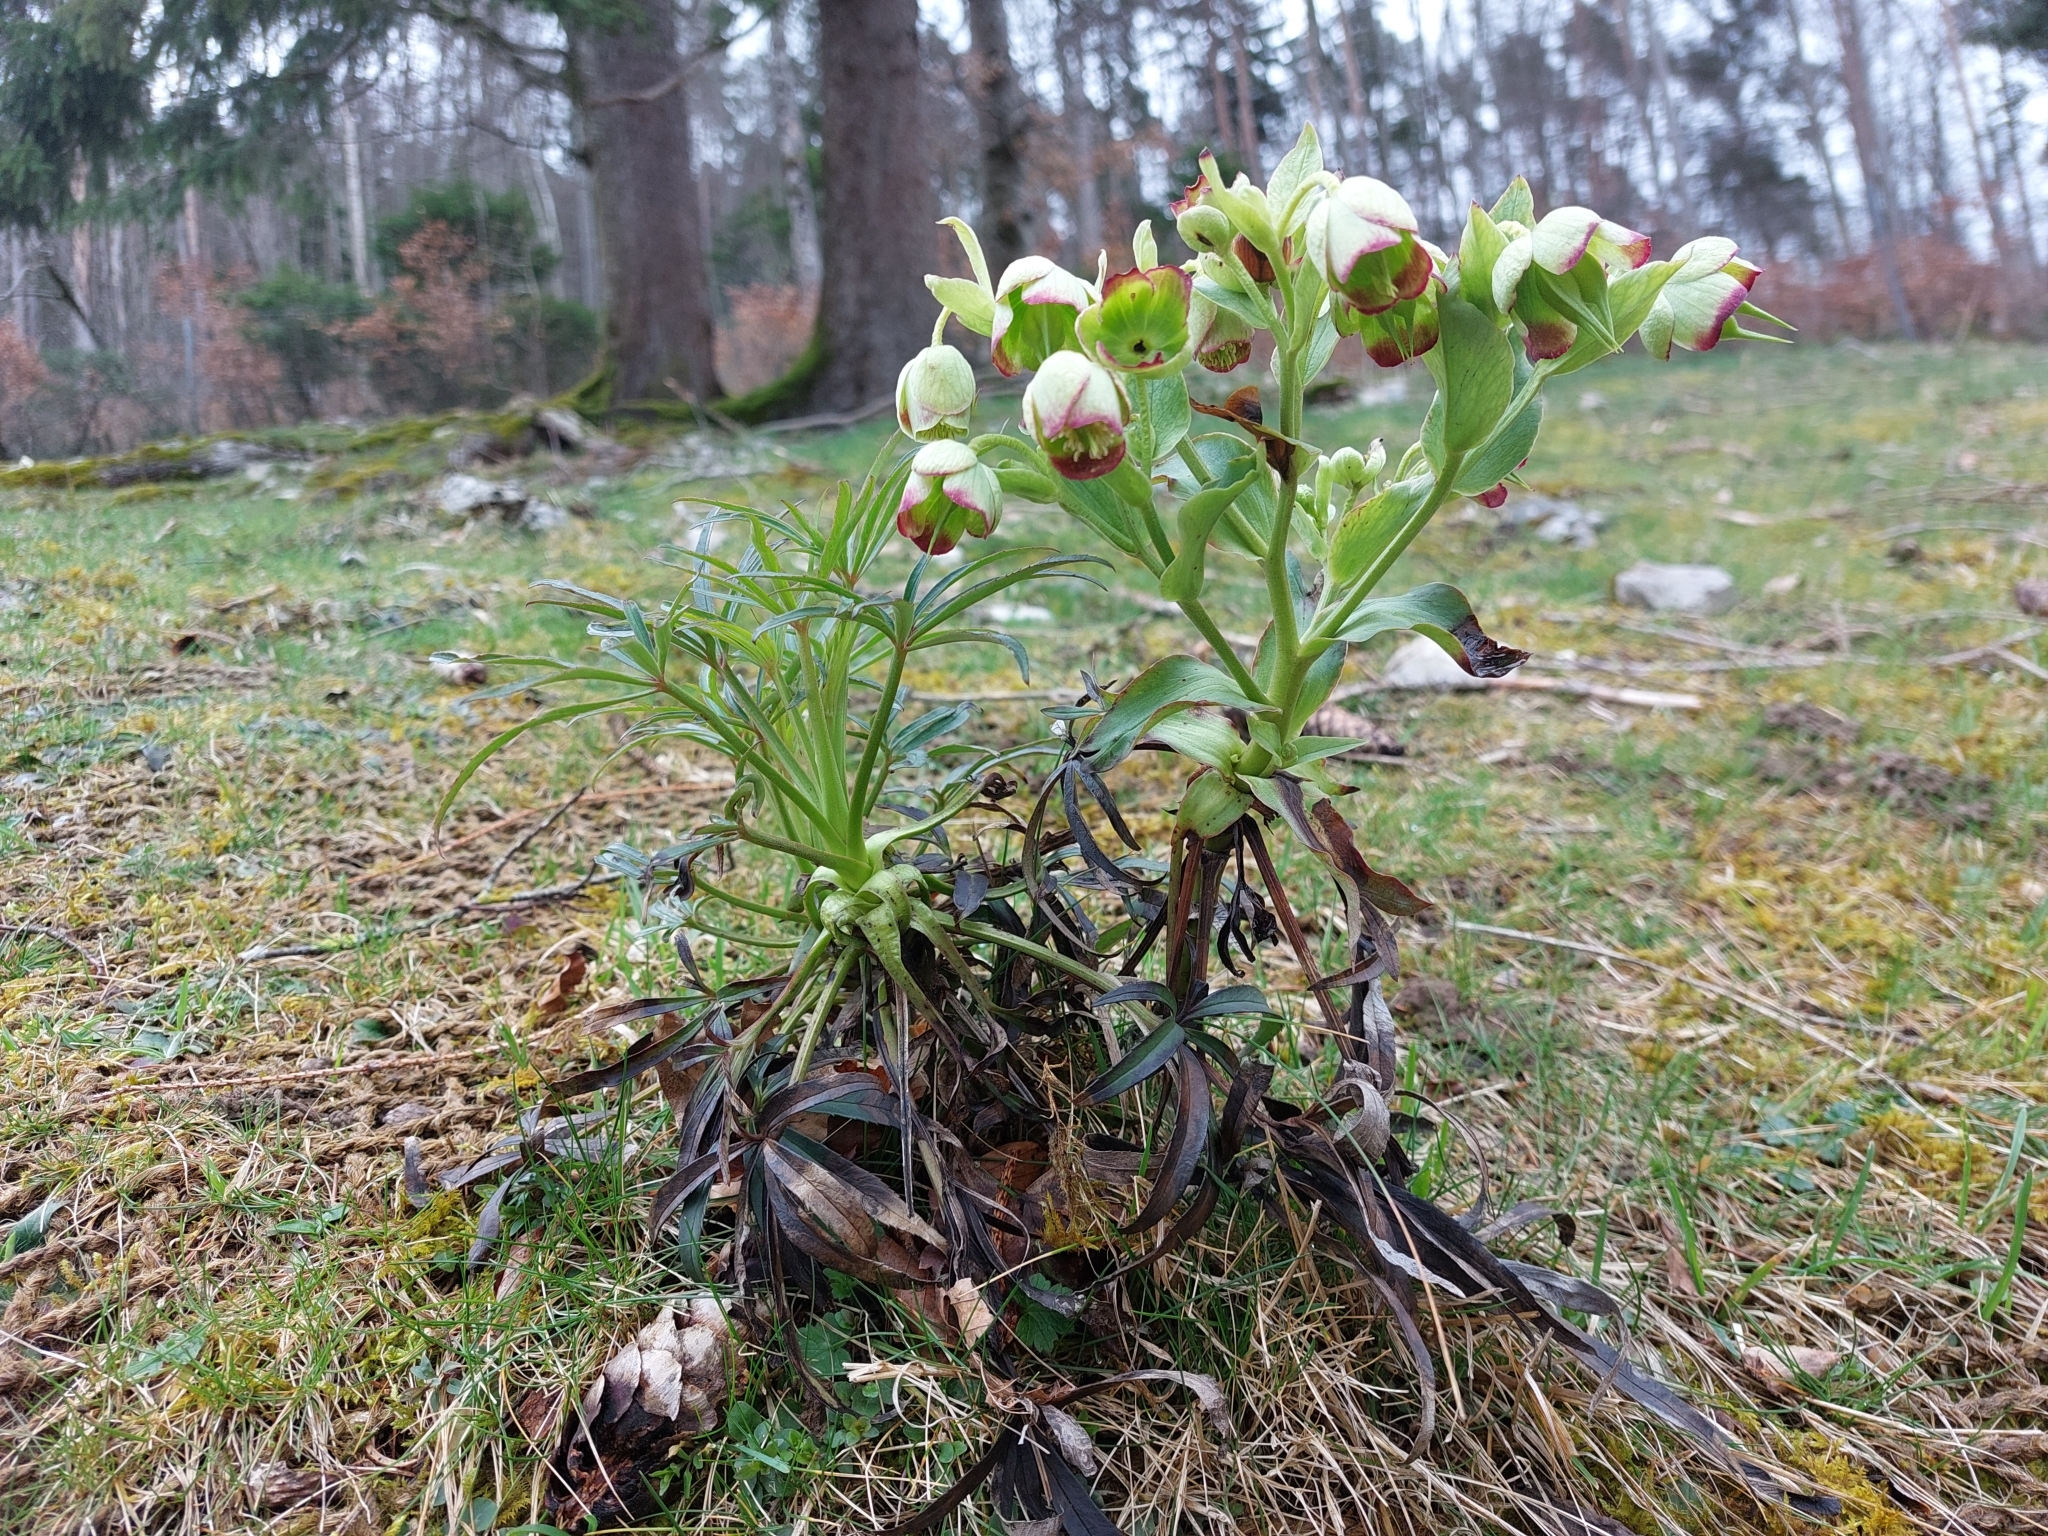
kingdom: Plantae
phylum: Tracheophyta
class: Magnoliopsida
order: Ranunculales
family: Ranunculaceae
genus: Helleborus
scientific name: Helleborus foetidus
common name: Stinking hellebore
